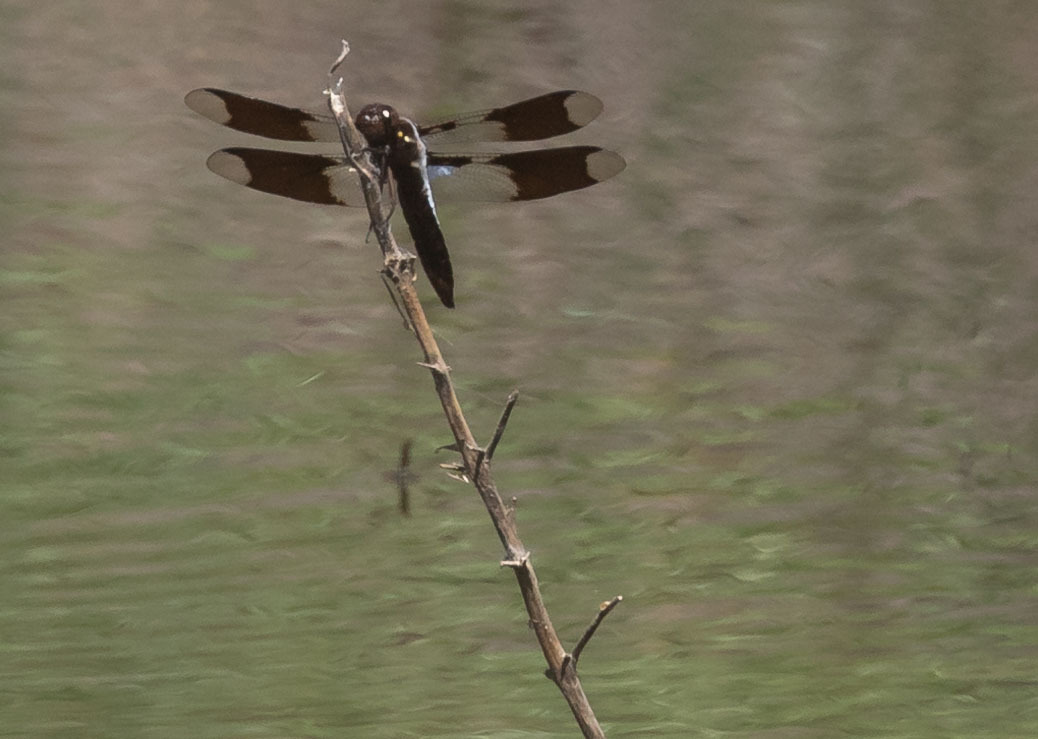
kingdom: Animalia
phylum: Arthropoda
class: Insecta
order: Odonata
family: Libellulidae
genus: Plathemis
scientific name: Plathemis lydia
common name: Common whitetail
